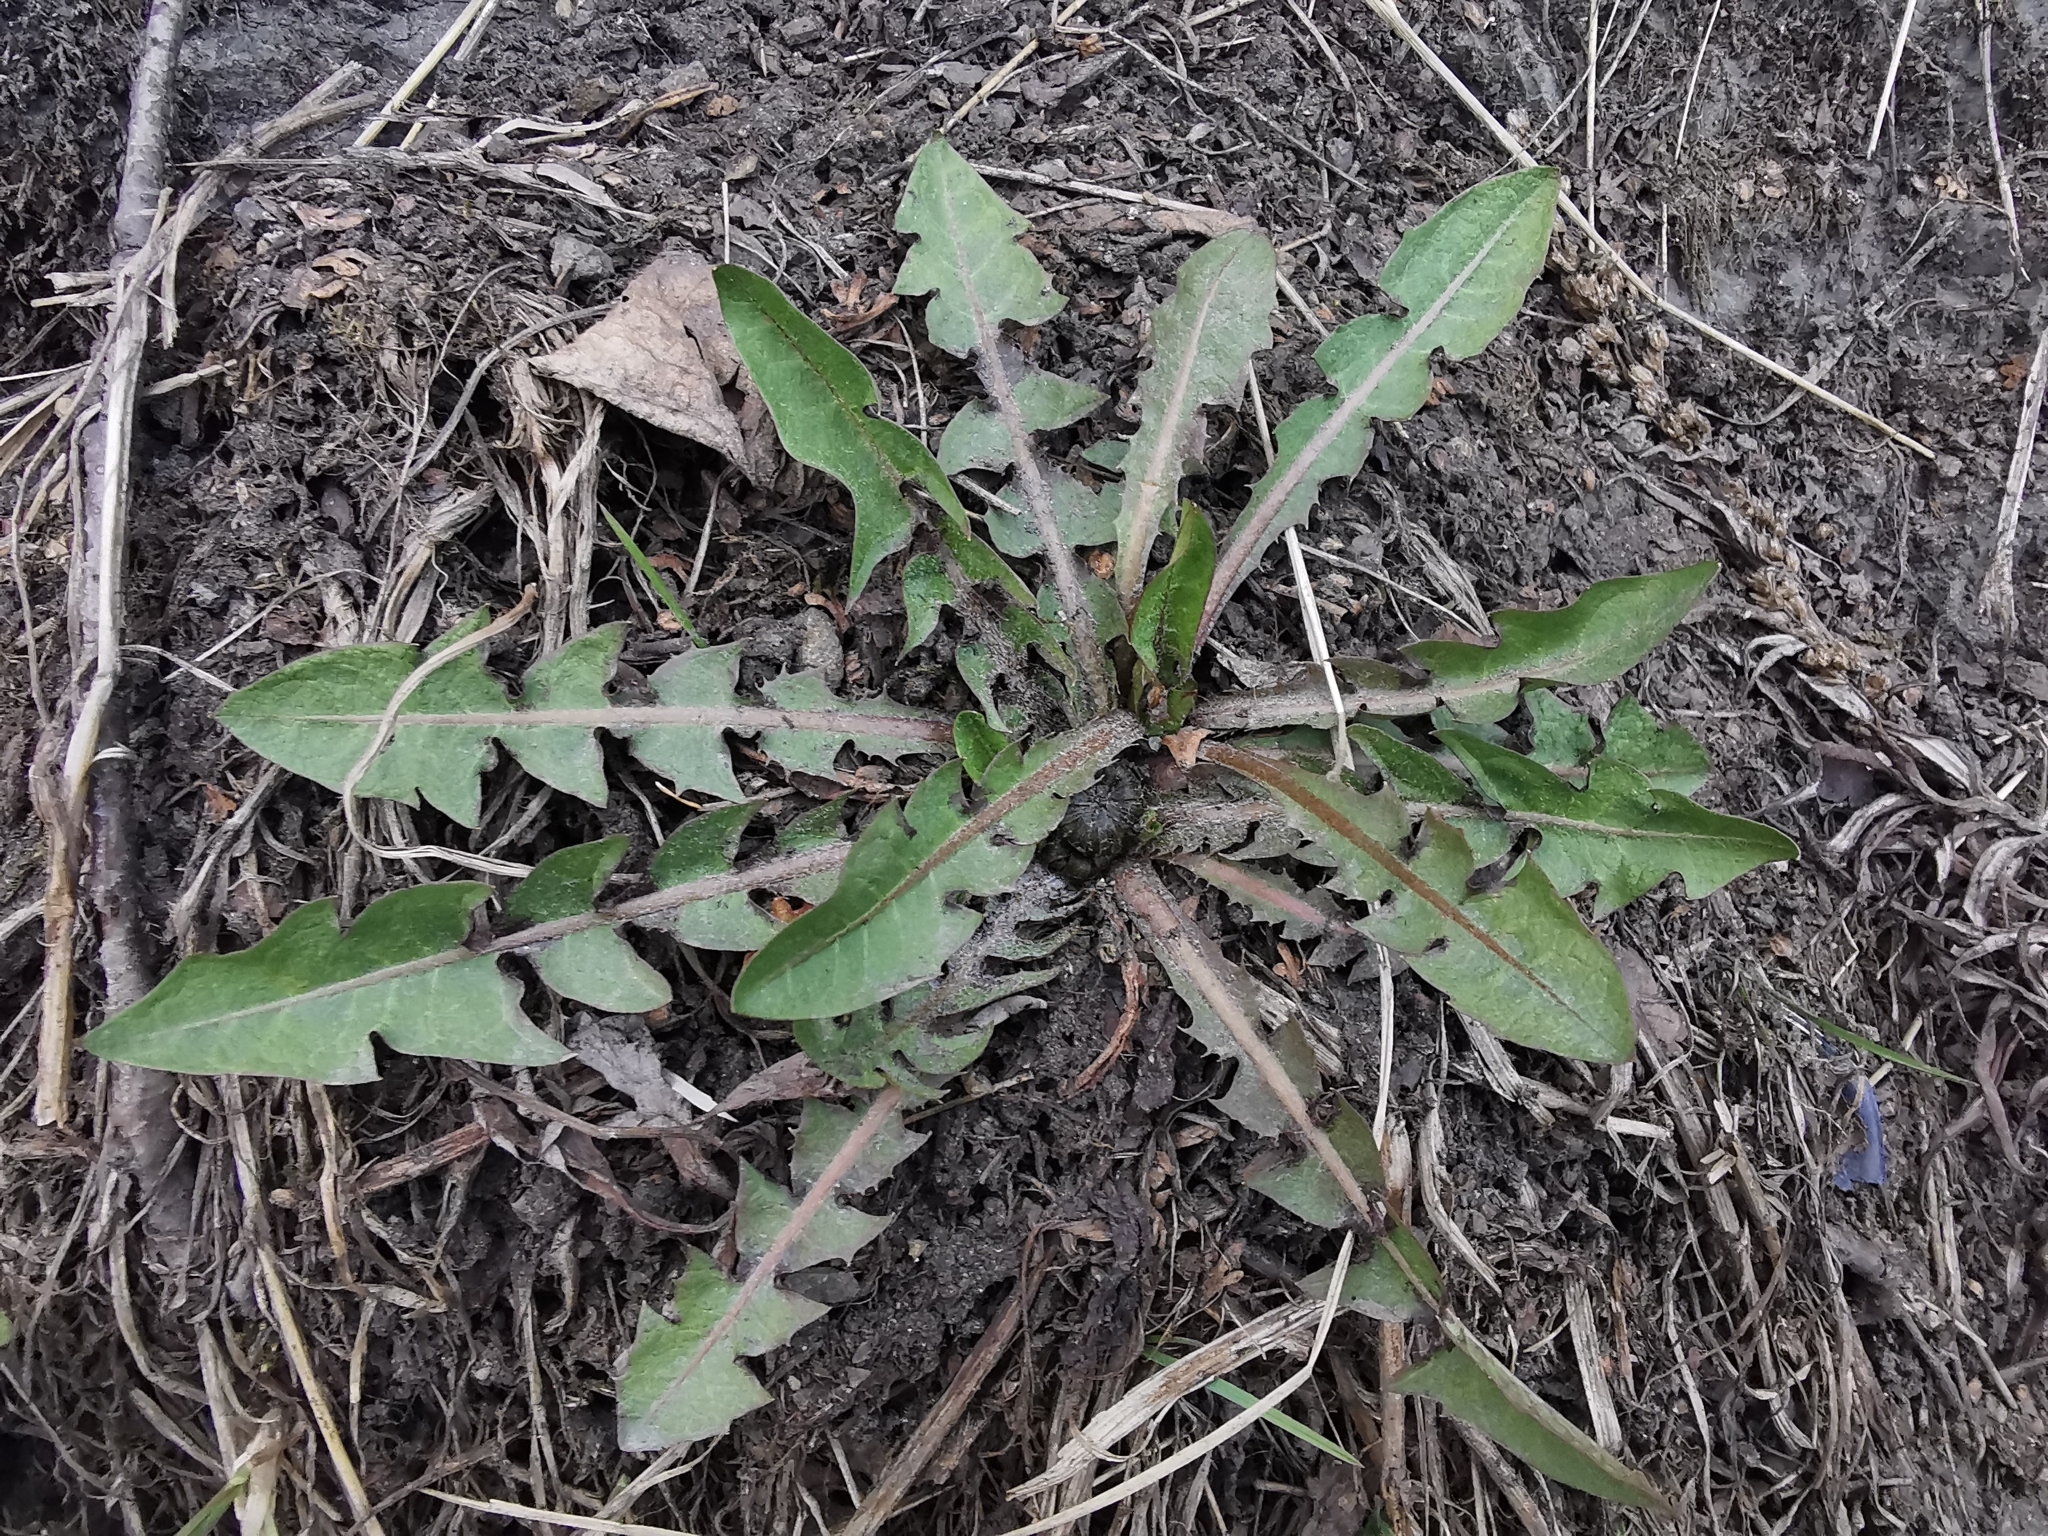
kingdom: Plantae
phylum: Tracheophyta
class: Magnoliopsida
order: Asterales
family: Asteraceae
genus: Taraxacum
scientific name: Taraxacum officinale
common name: Common dandelion
